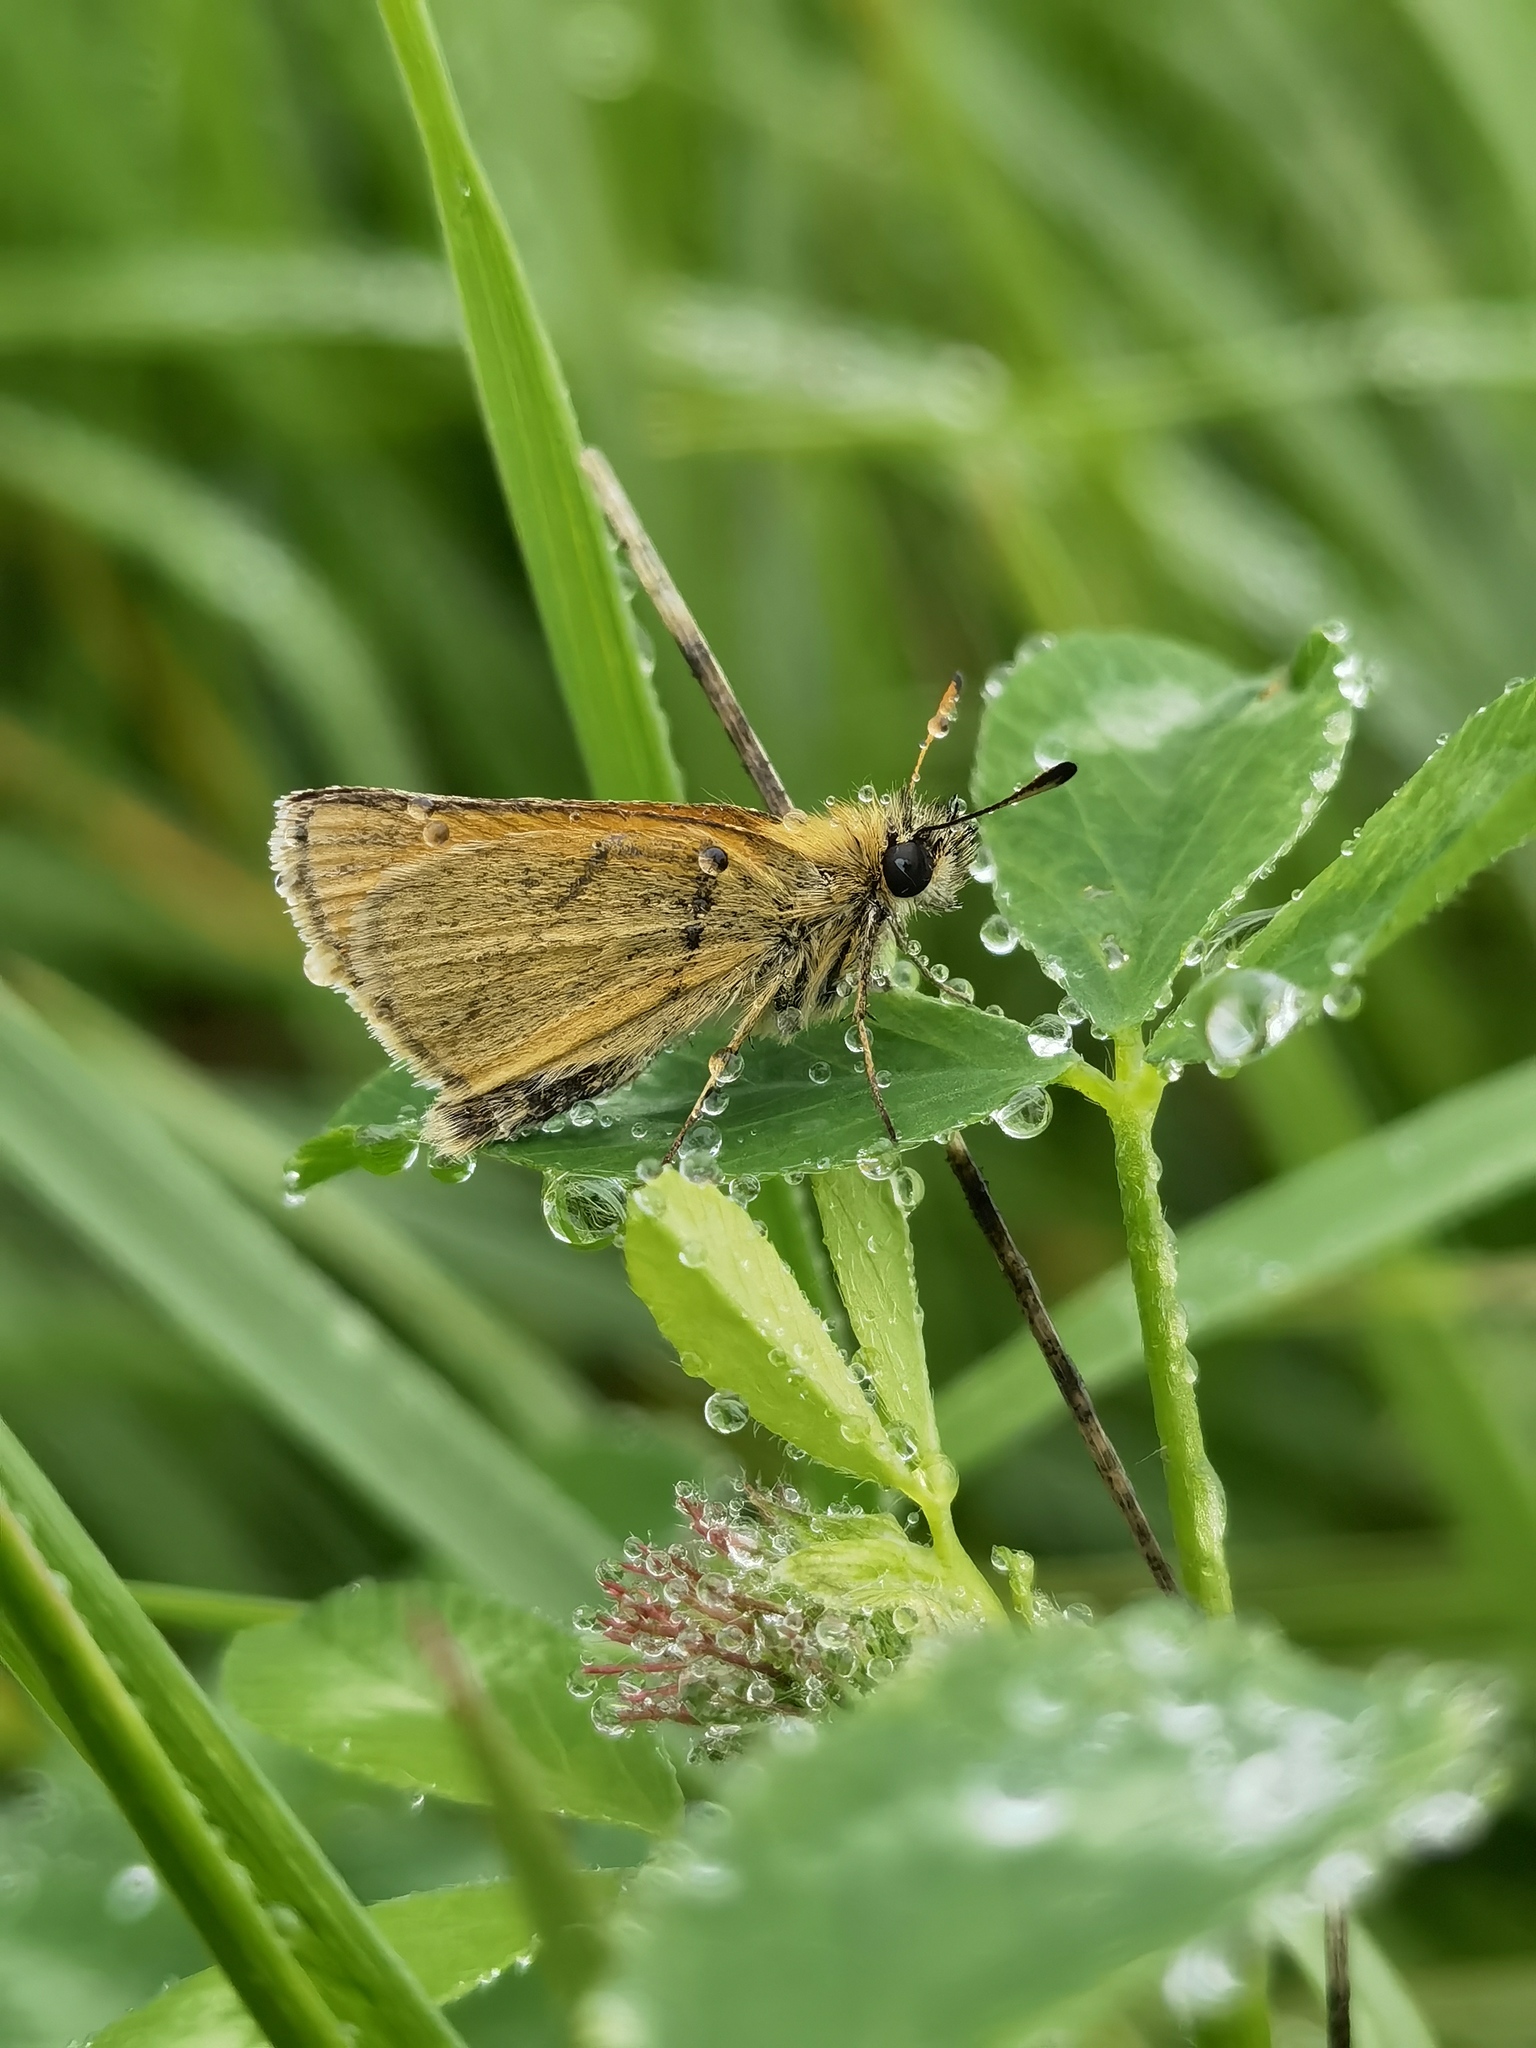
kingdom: Animalia
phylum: Arthropoda
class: Insecta
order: Lepidoptera
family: Hesperiidae
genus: Thymelicus
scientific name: Thymelicus lineola
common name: Essex skipper
